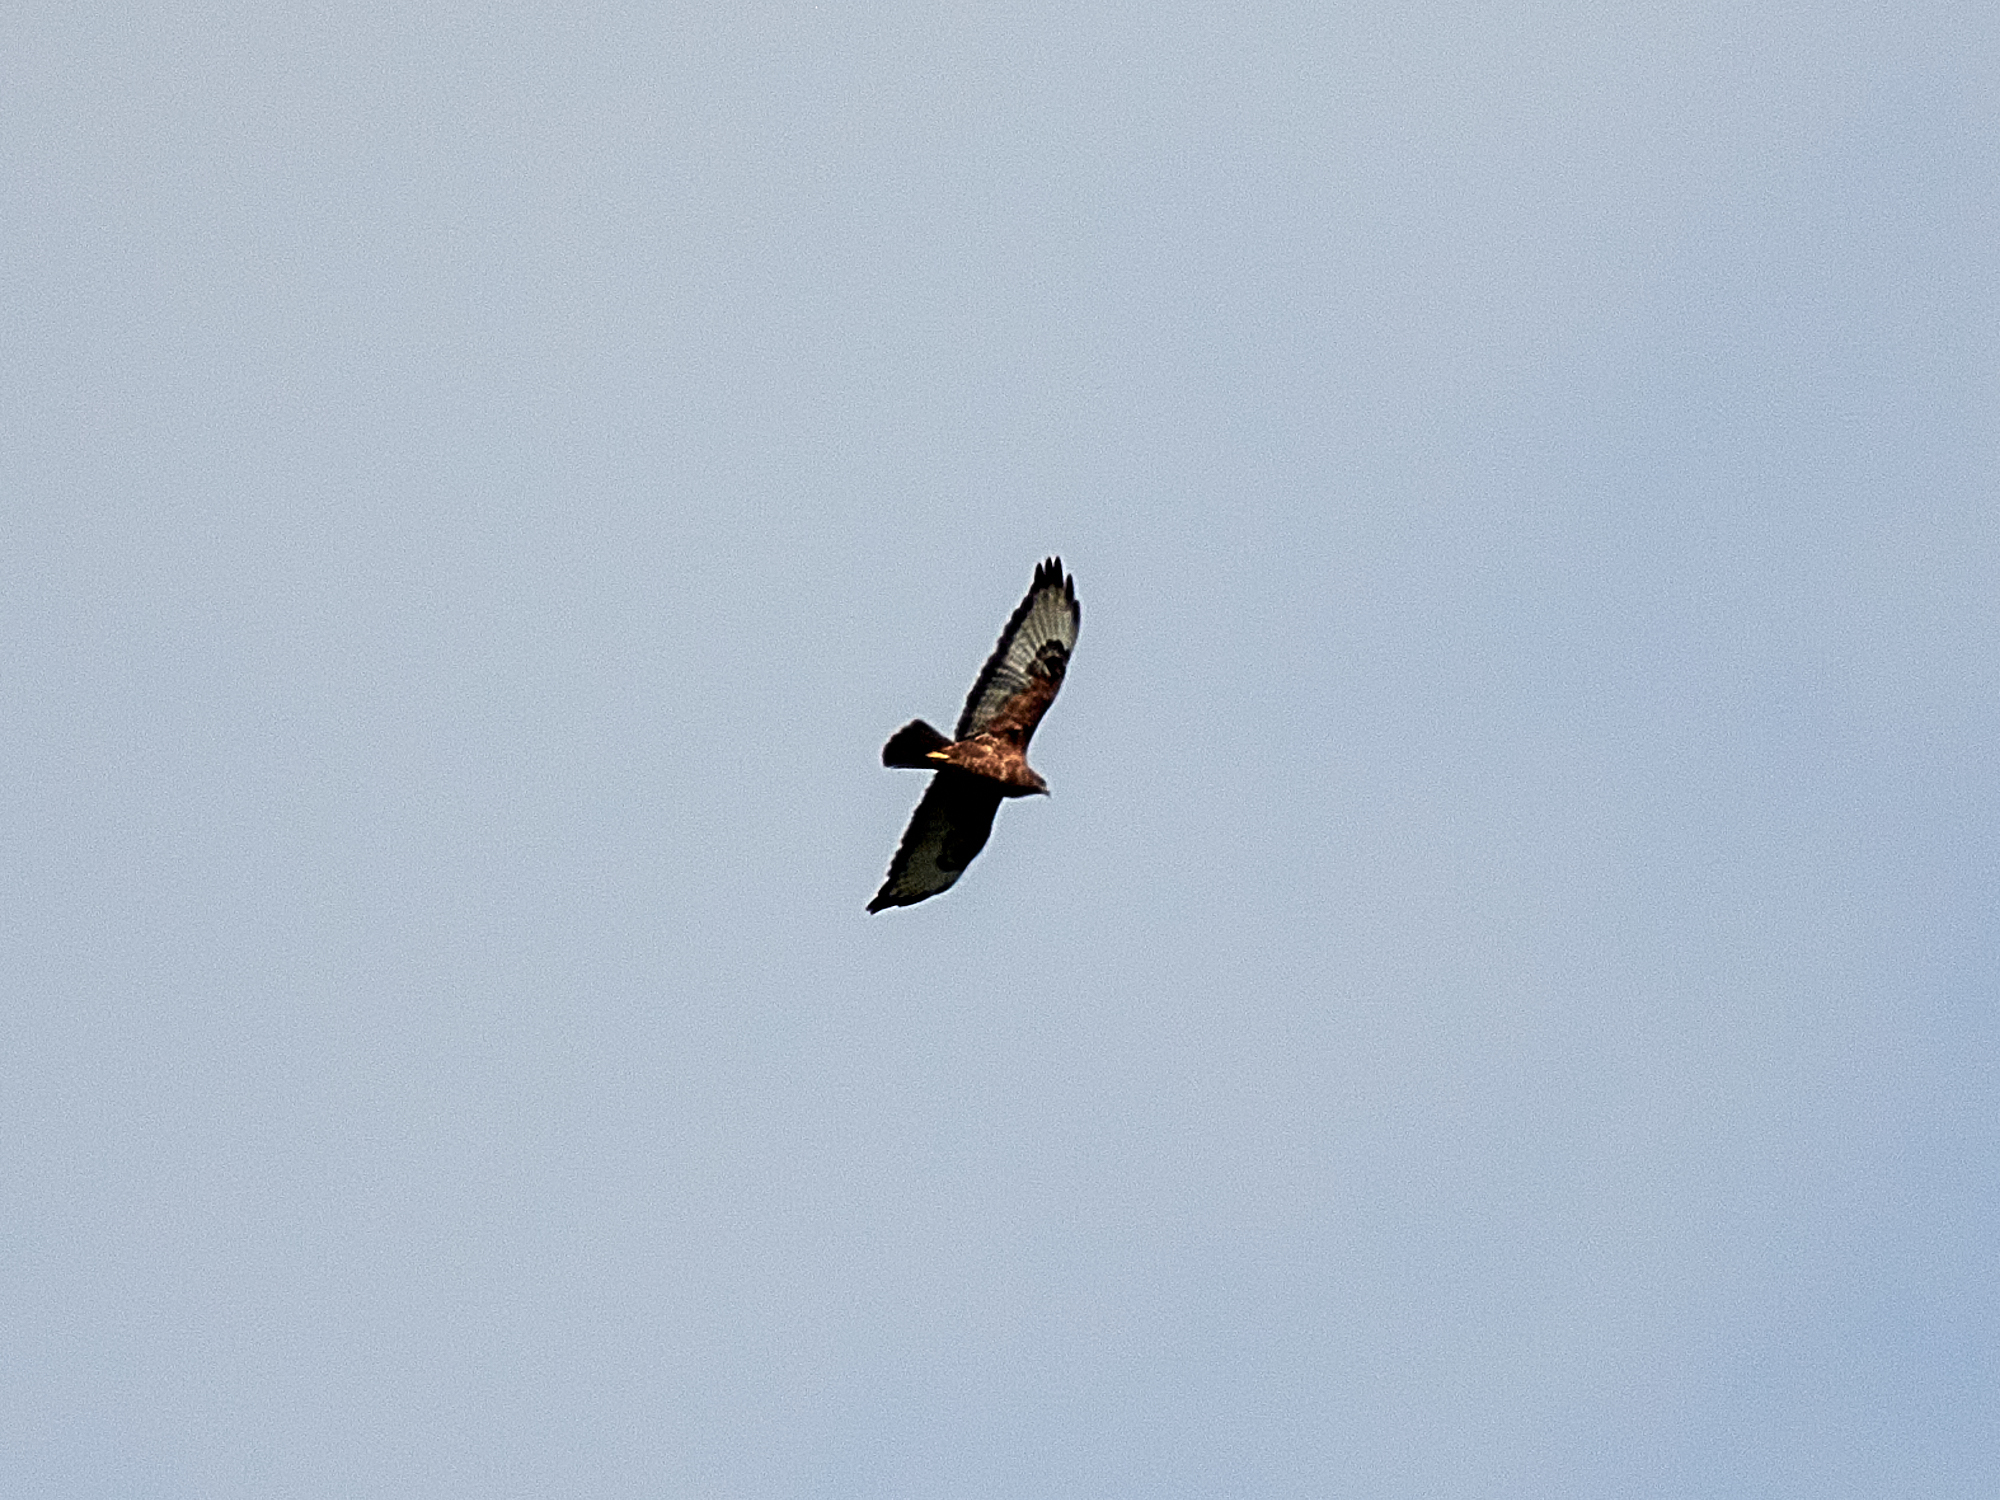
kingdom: Animalia
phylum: Chordata
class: Aves
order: Accipitriformes
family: Accipitridae
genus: Buteo
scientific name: Buteo buteo
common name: Common buzzard
